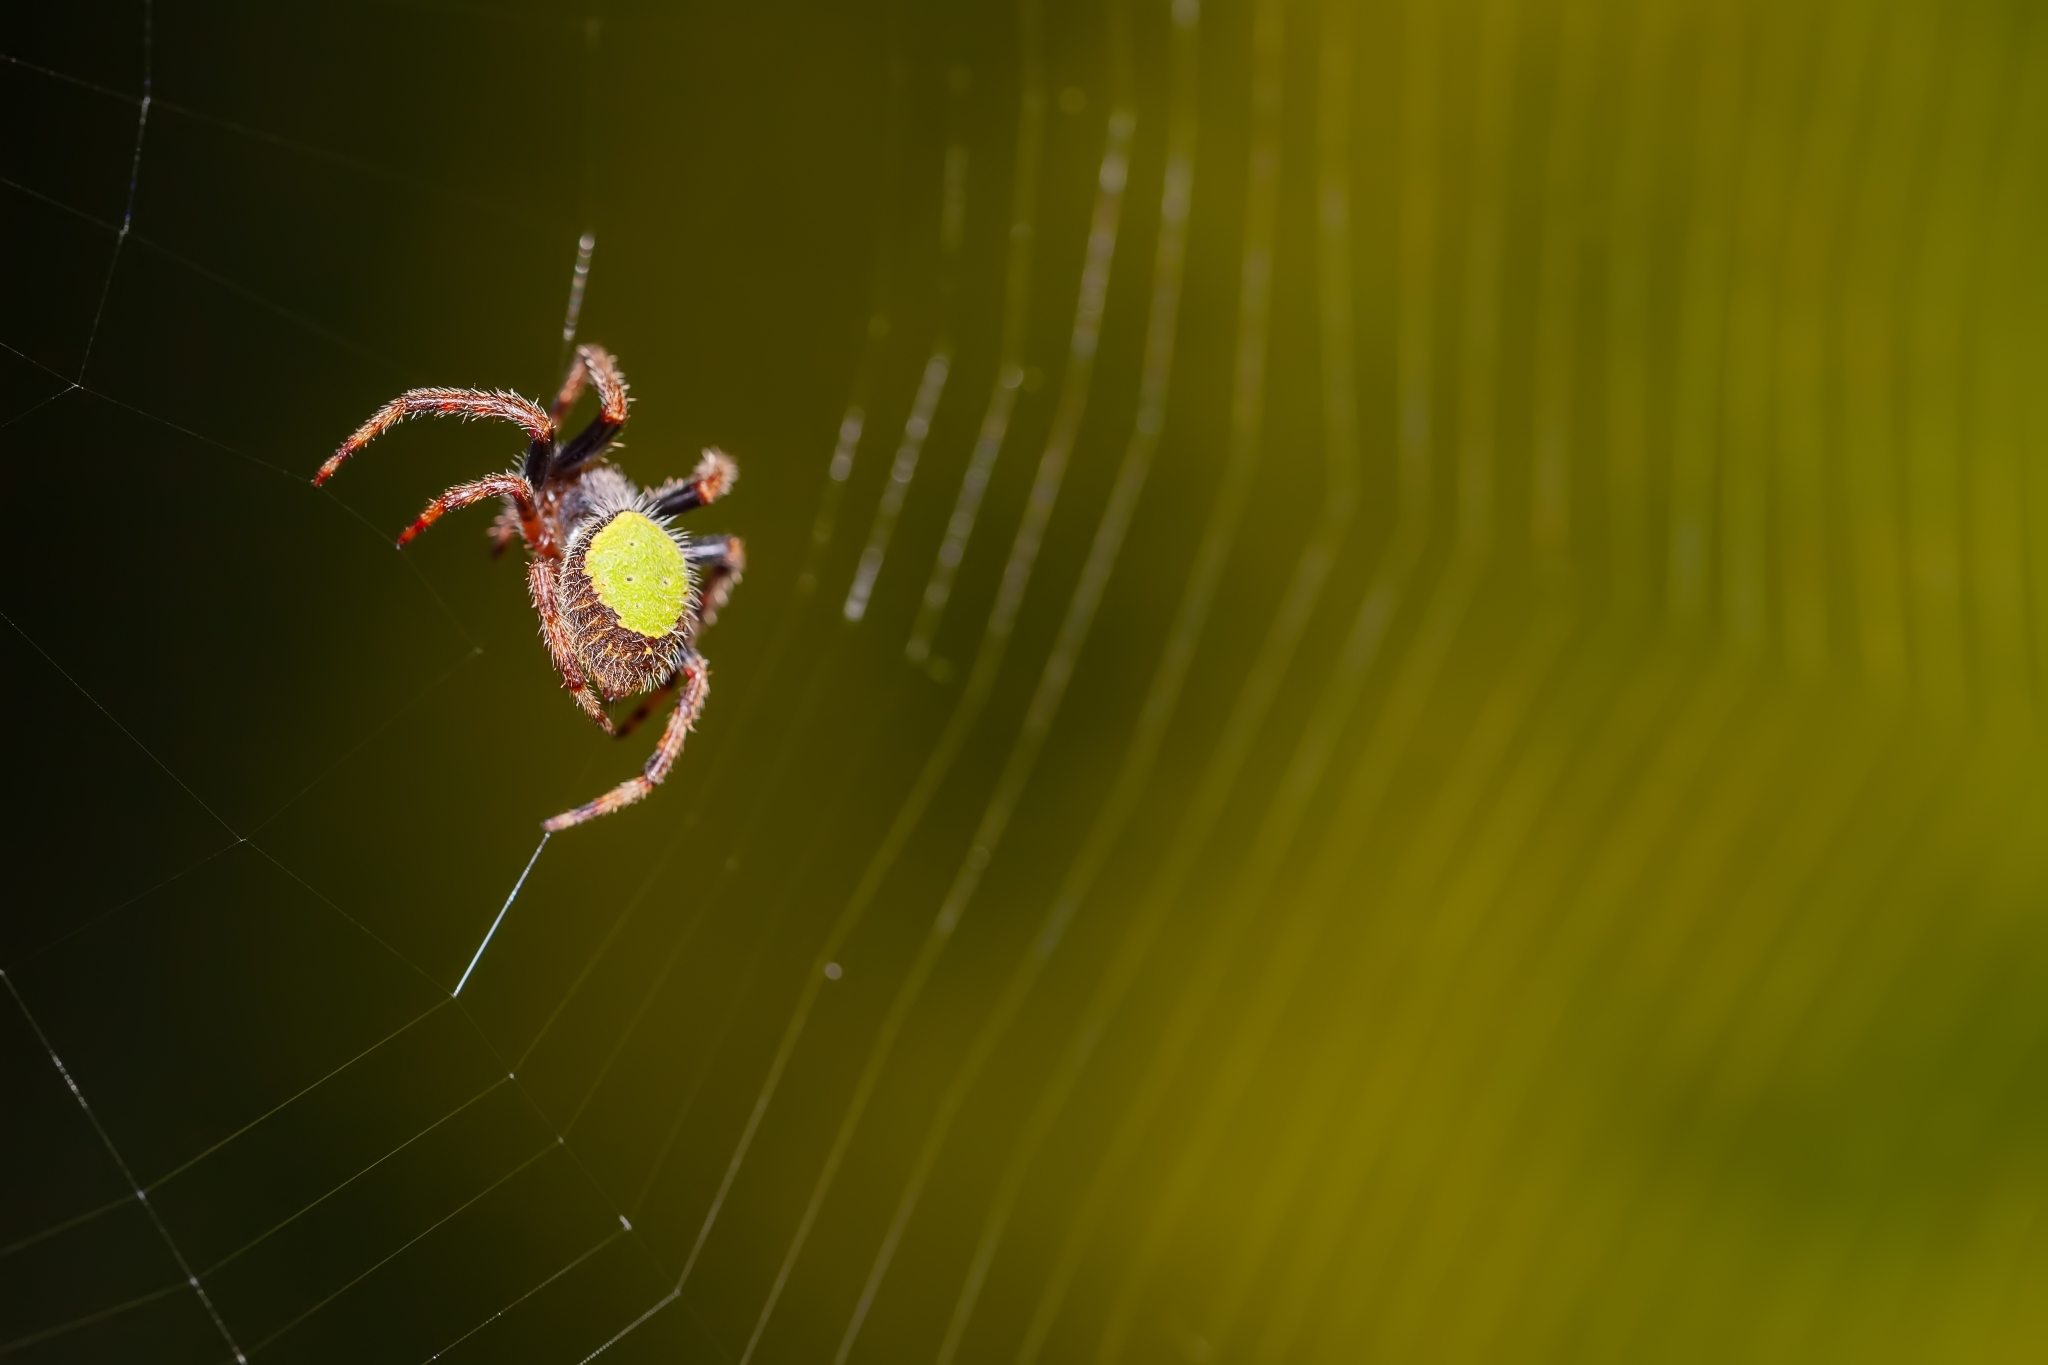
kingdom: Animalia
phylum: Arthropoda
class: Arachnida
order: Araneae
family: Araneidae
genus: Eriophora
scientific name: Eriophora ravilla
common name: Orb weavers
